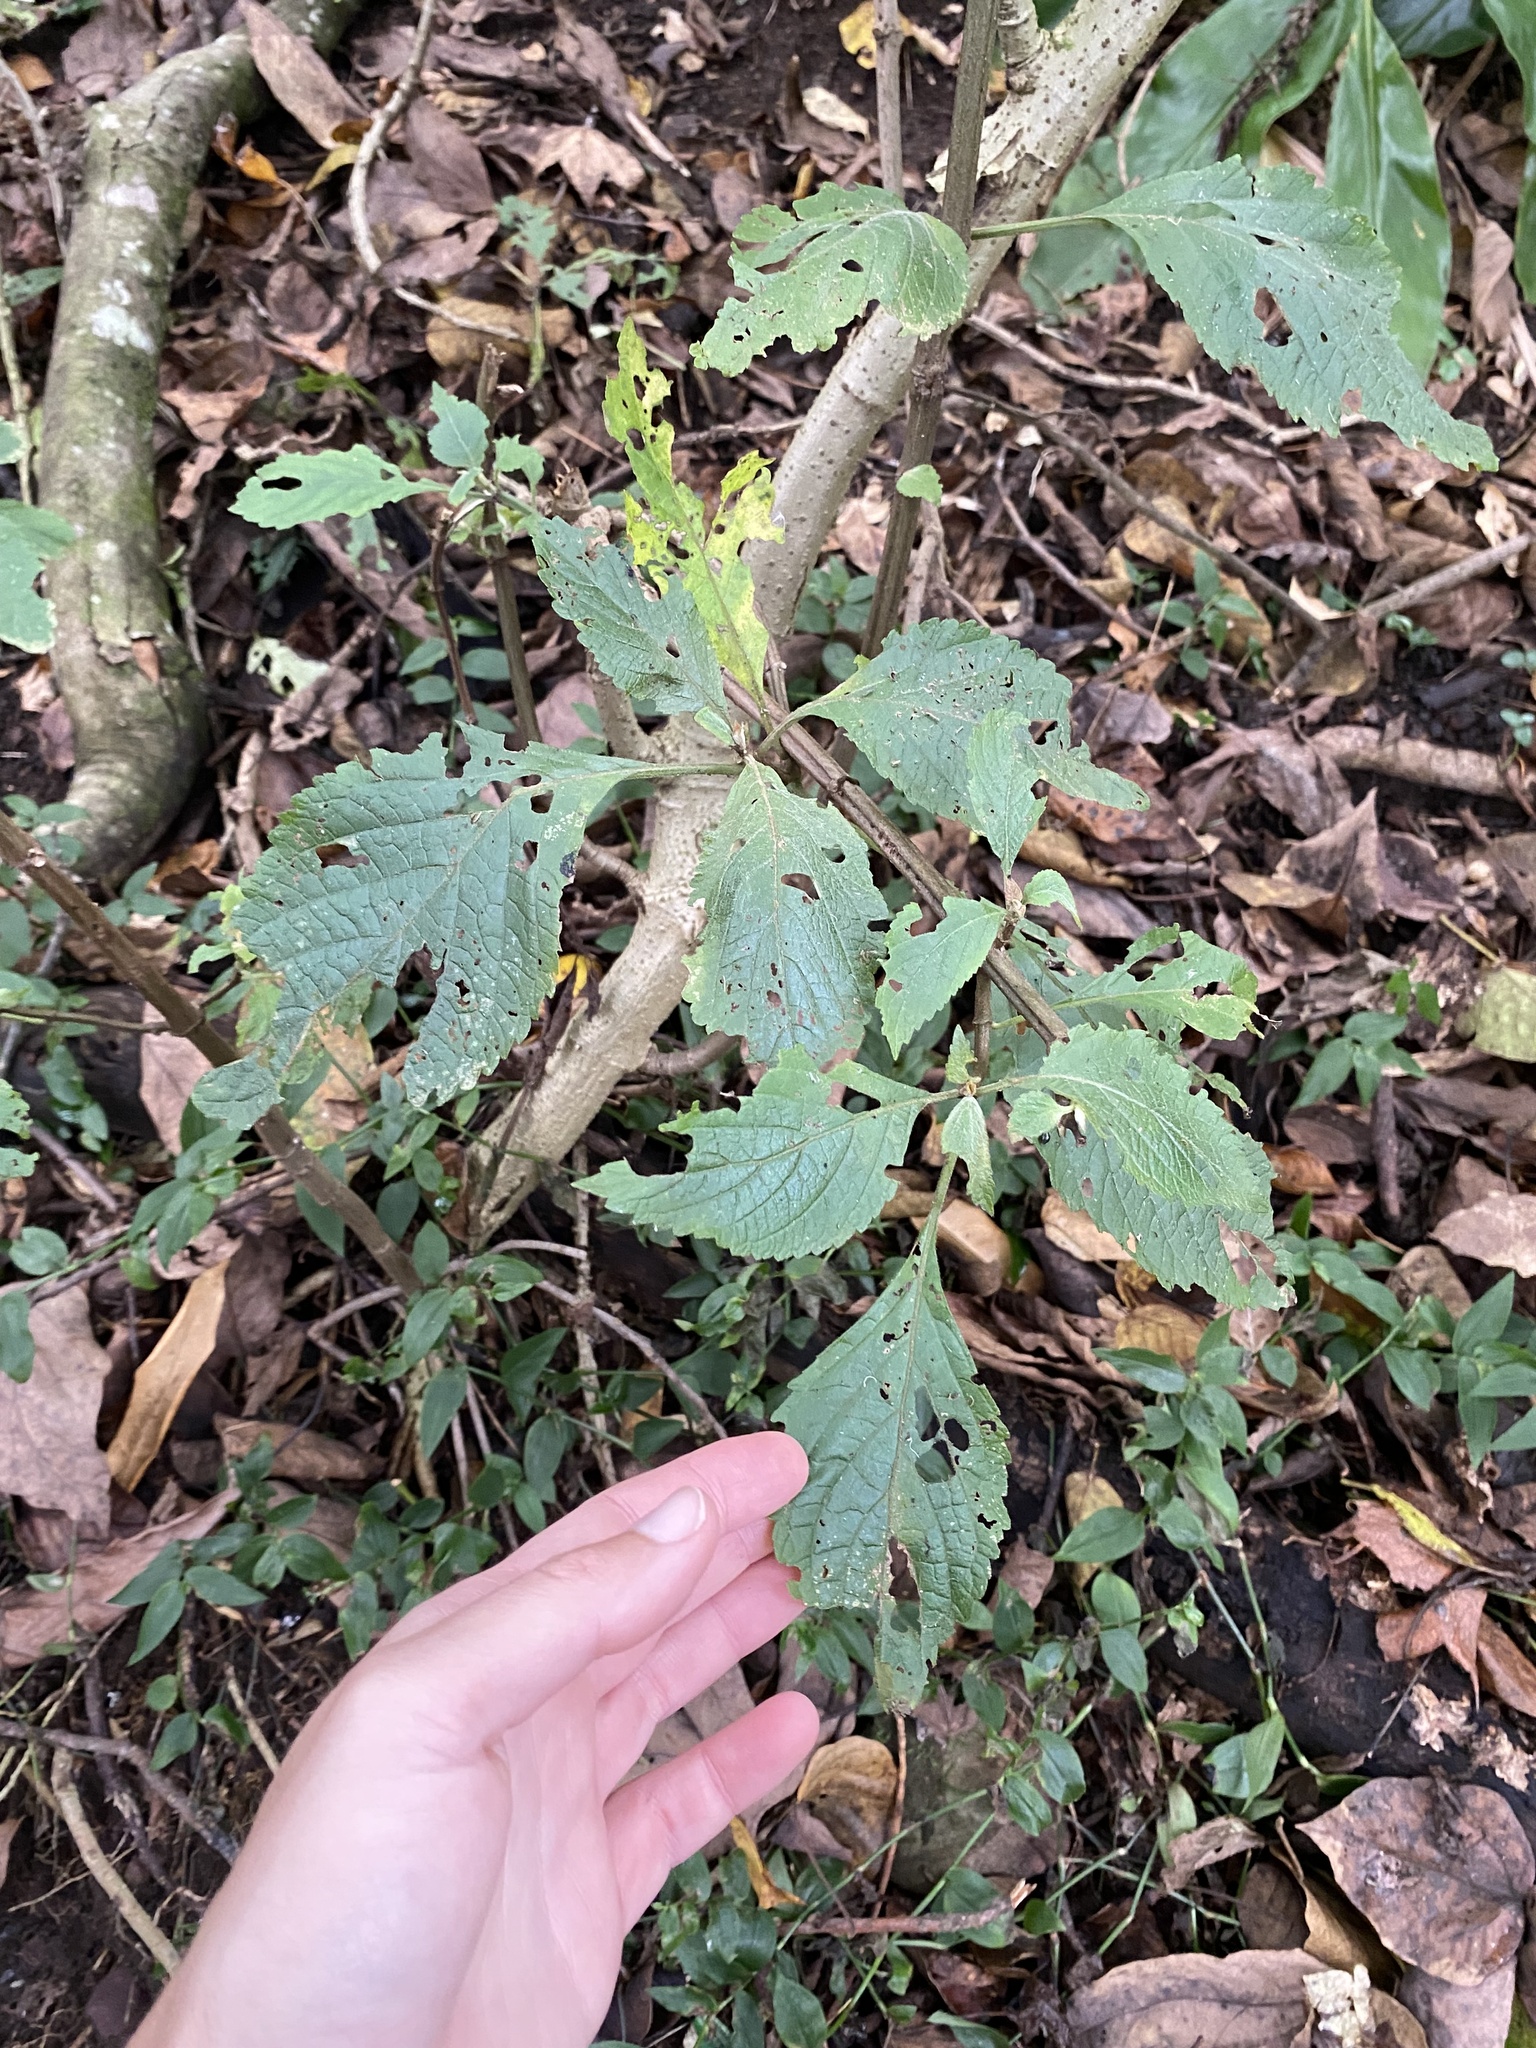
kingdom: Plantae
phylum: Tracheophyta
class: Magnoliopsida
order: Lamiales
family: Lamiaceae
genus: Plectranthus
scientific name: Plectranthus ecklonii
